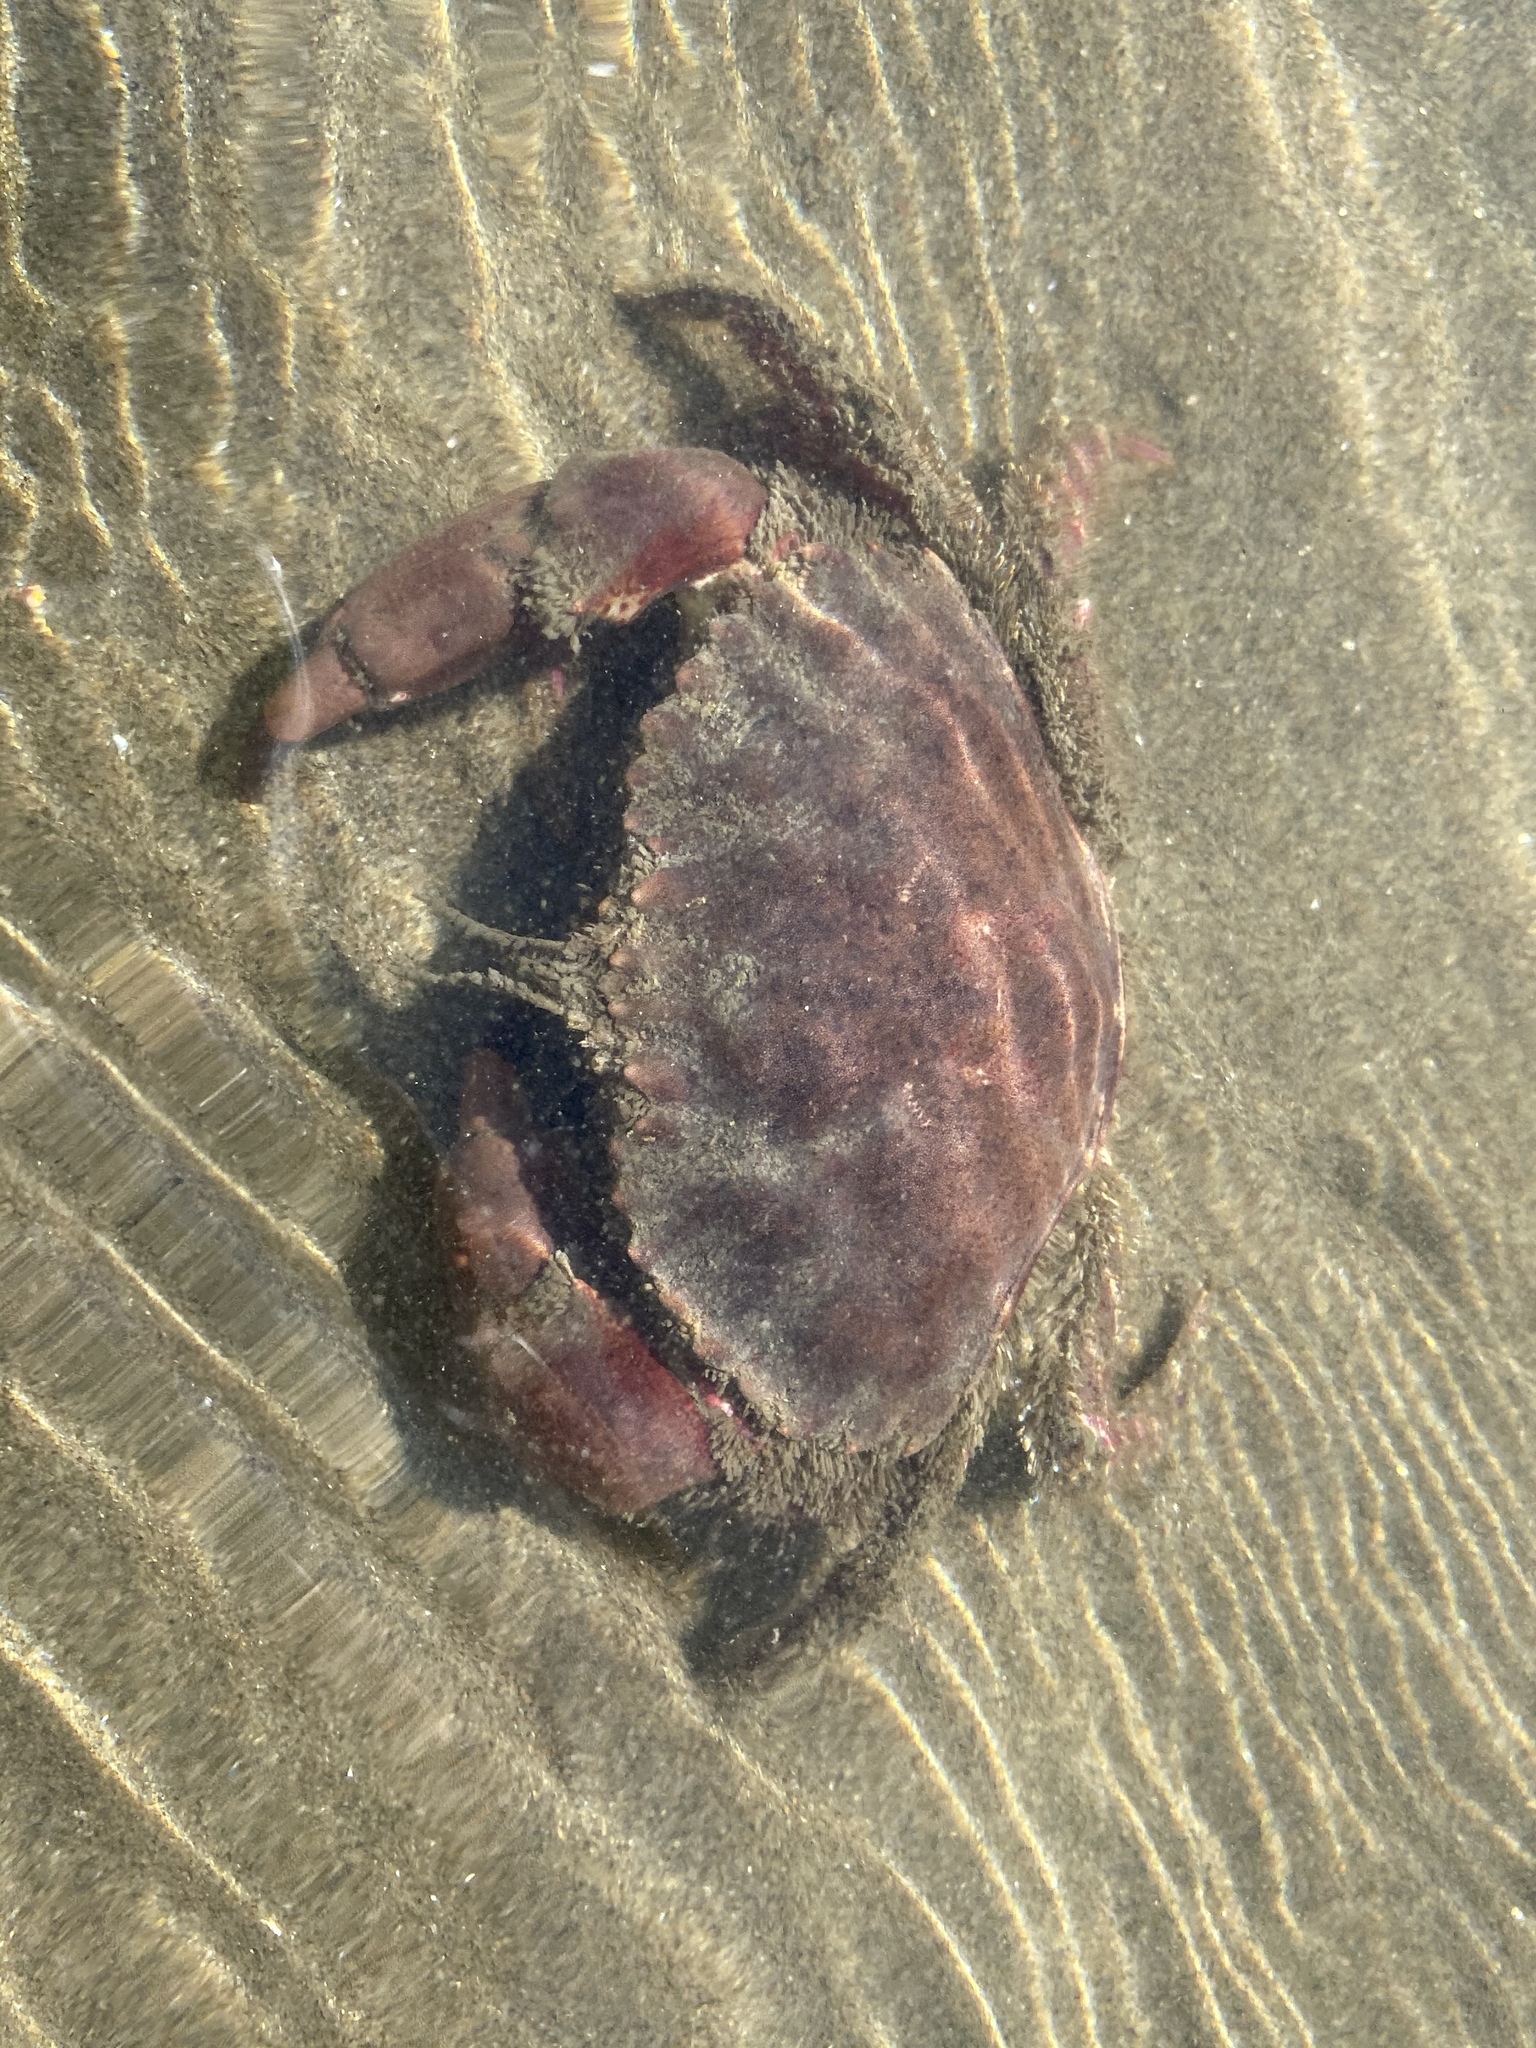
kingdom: Animalia
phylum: Arthropoda
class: Malacostraca
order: Decapoda
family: Cancridae
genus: Romaleon
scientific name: Romaleon antennarium
